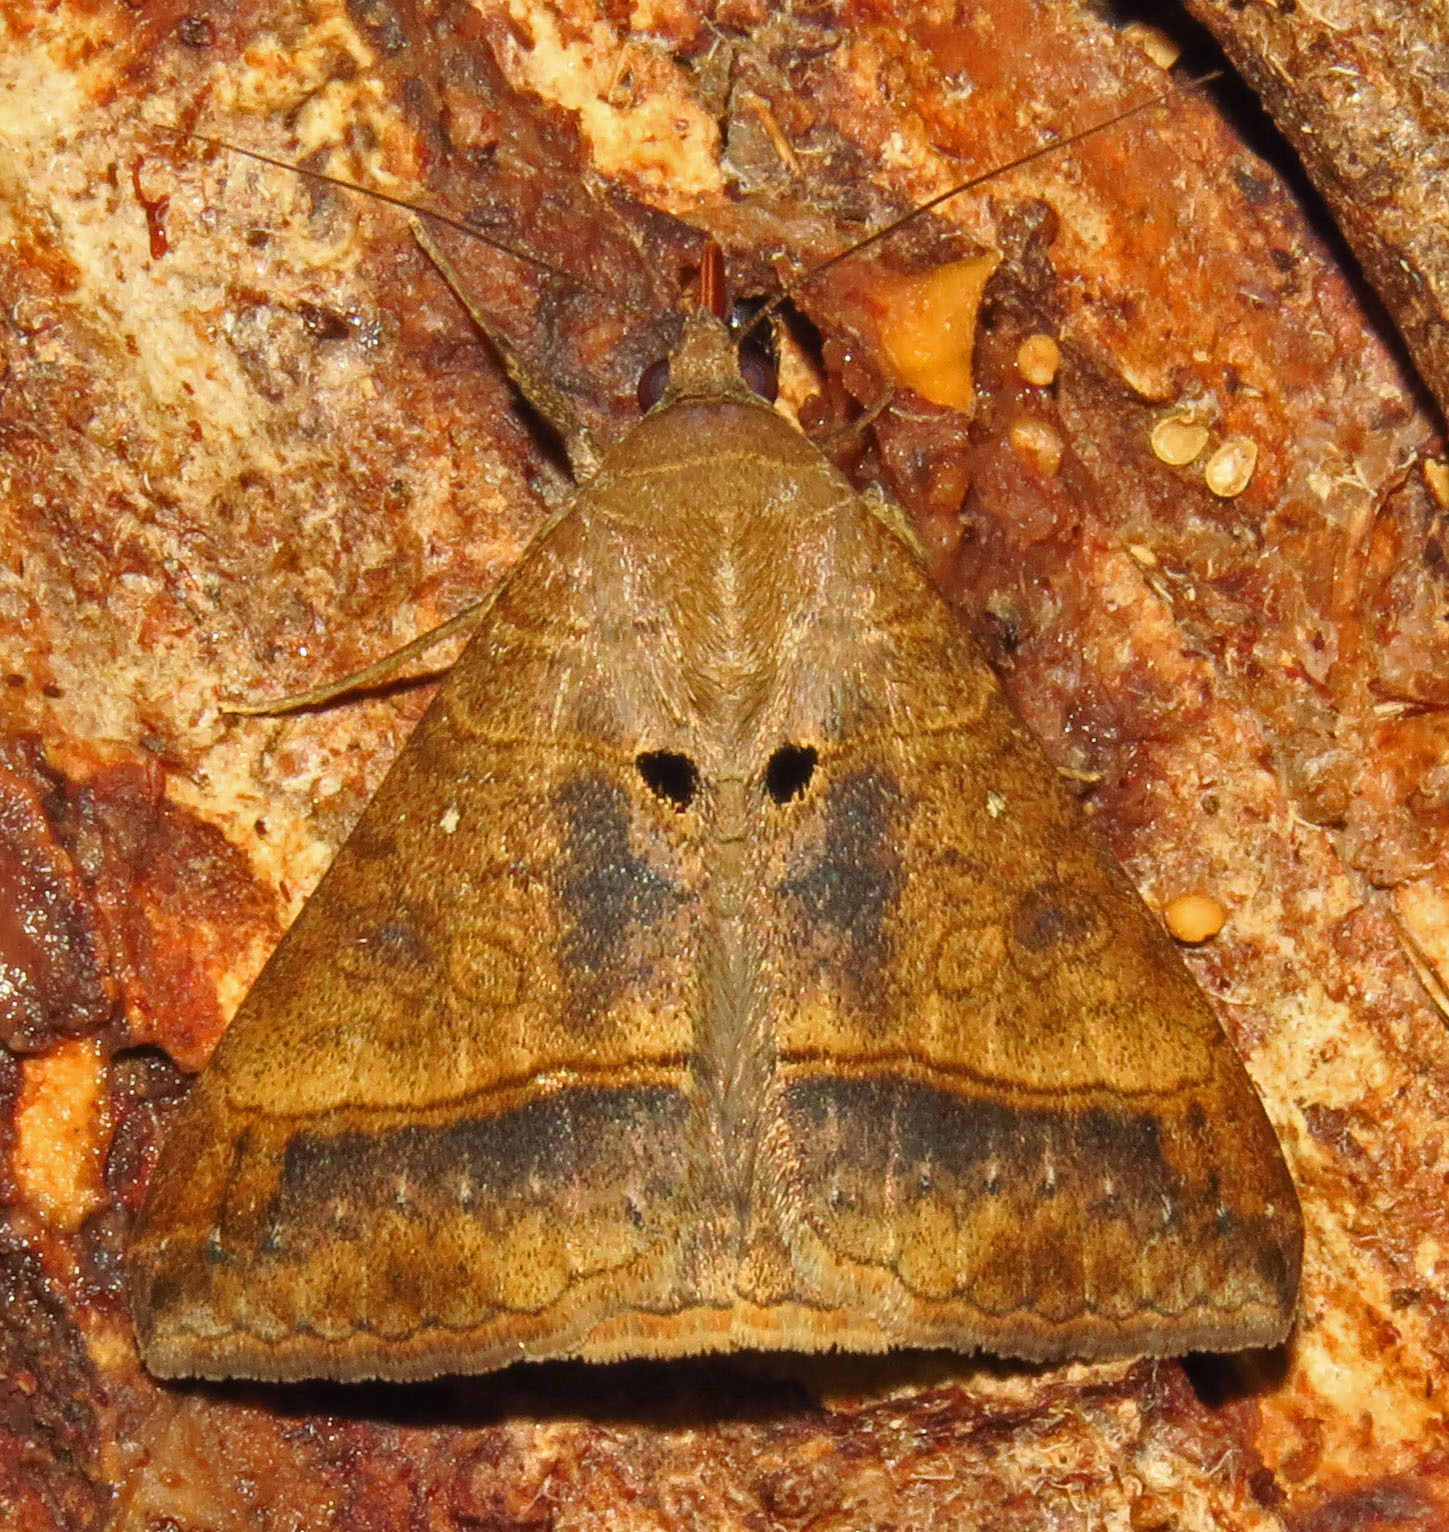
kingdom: Animalia
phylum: Arthropoda
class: Insecta
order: Lepidoptera
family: Erebidae
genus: Mocis
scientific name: Mocis latipes
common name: Striped grass looper
